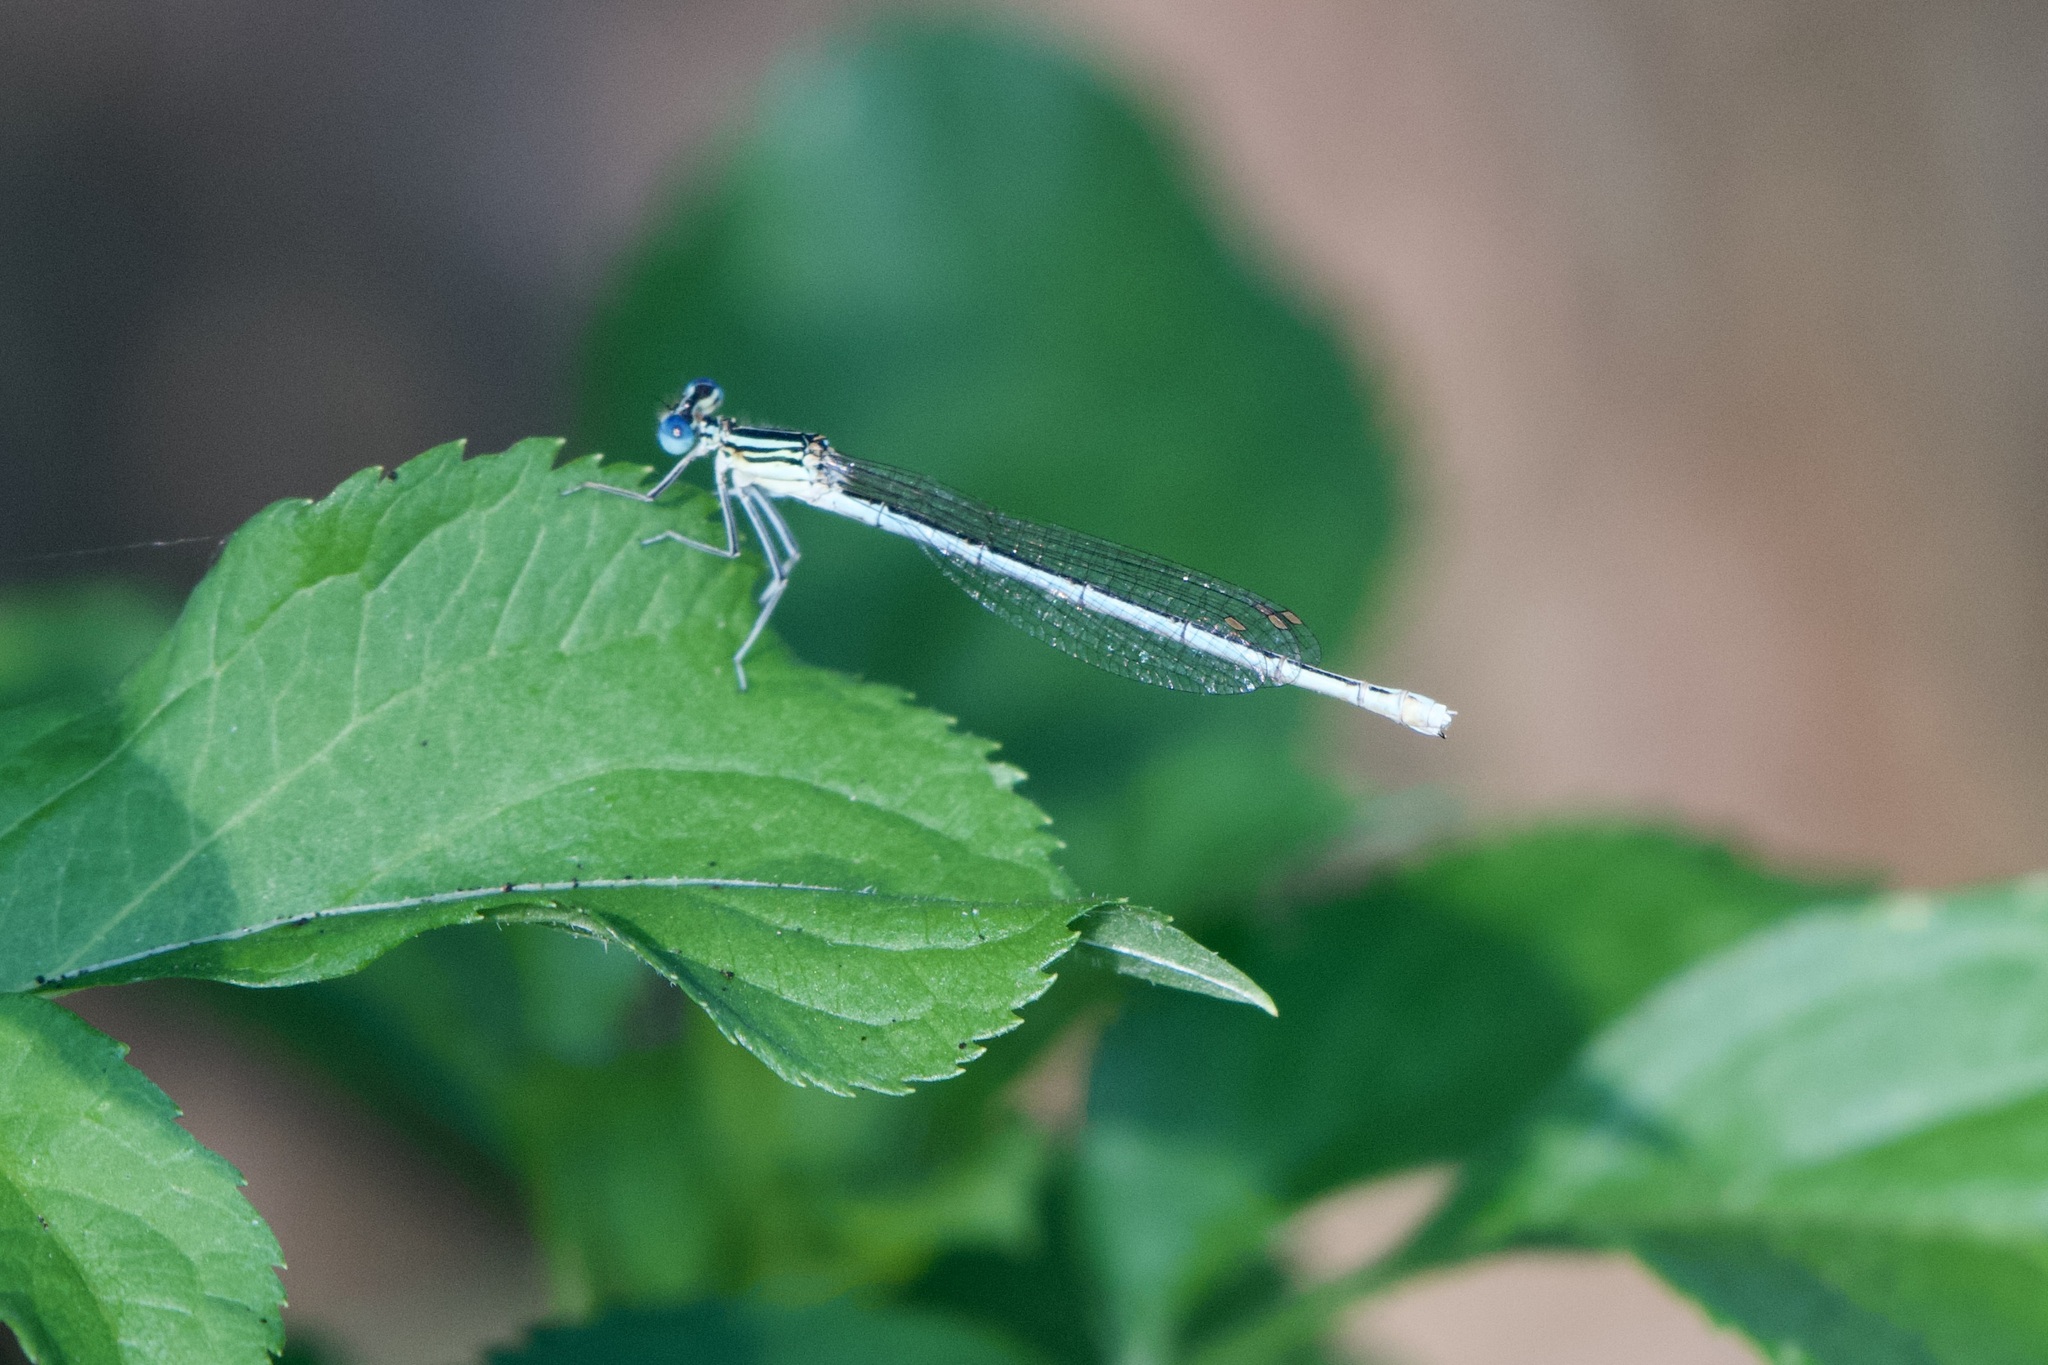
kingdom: Animalia
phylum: Arthropoda
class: Insecta
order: Odonata
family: Platycnemididae
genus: Platycnemis
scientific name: Platycnemis pennipes
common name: White-legged damselfly
